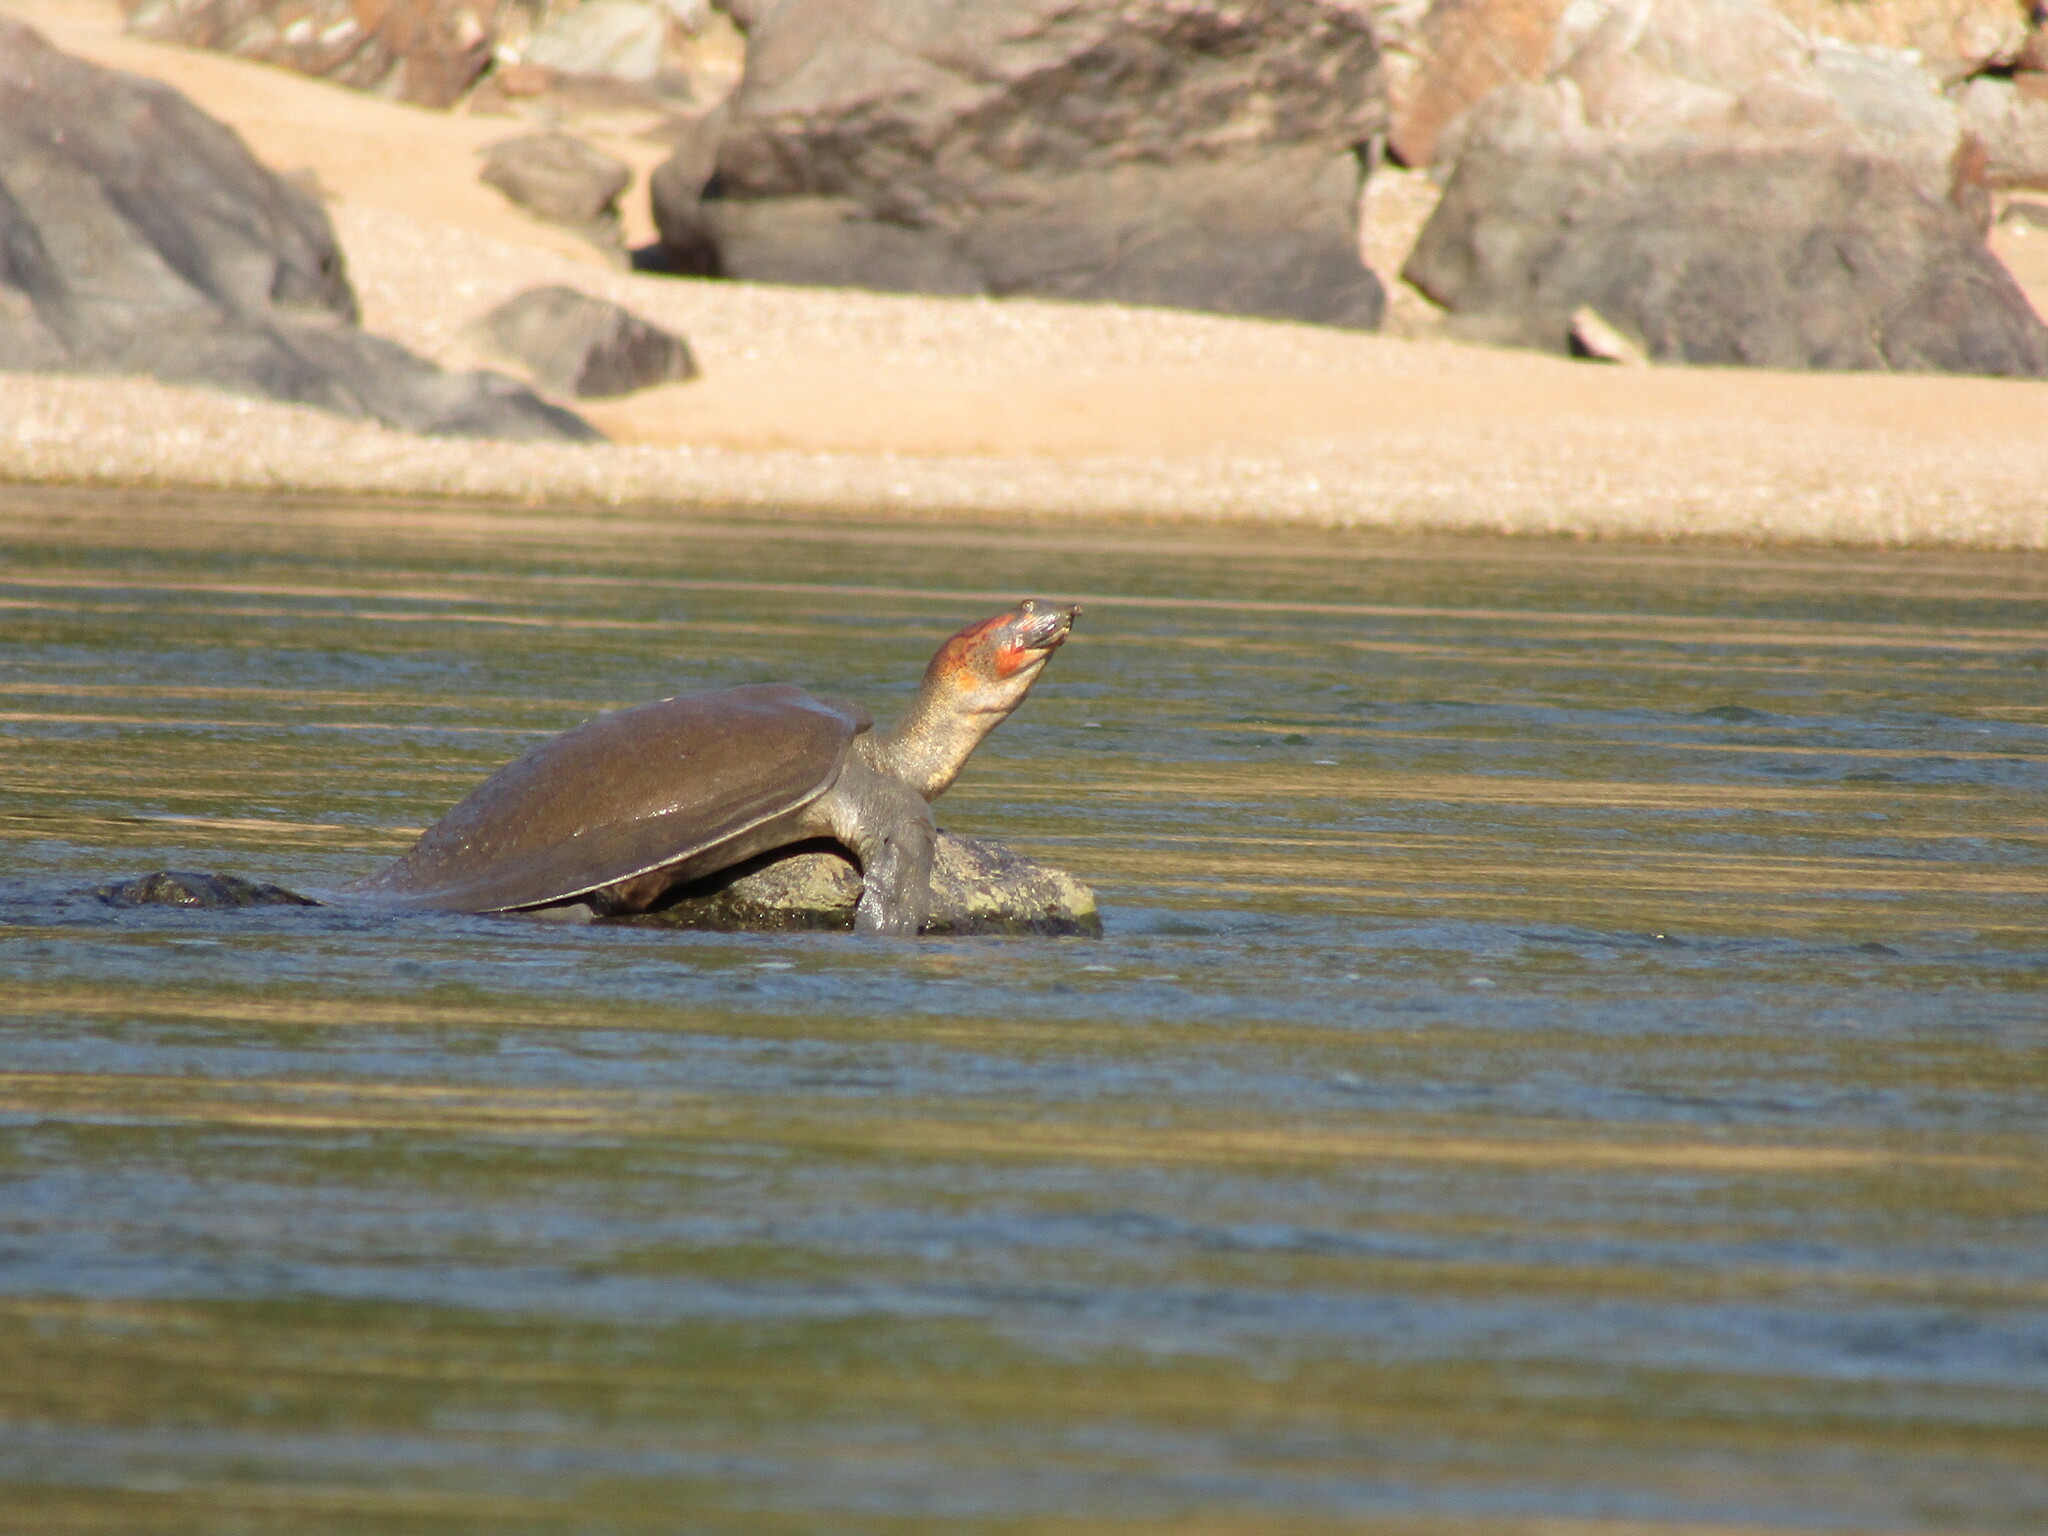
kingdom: Animalia
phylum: Chordata
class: Testudines
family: Trionychidae
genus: Nilssonia
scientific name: Nilssonia leithii
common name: Leiths softshell turtle
